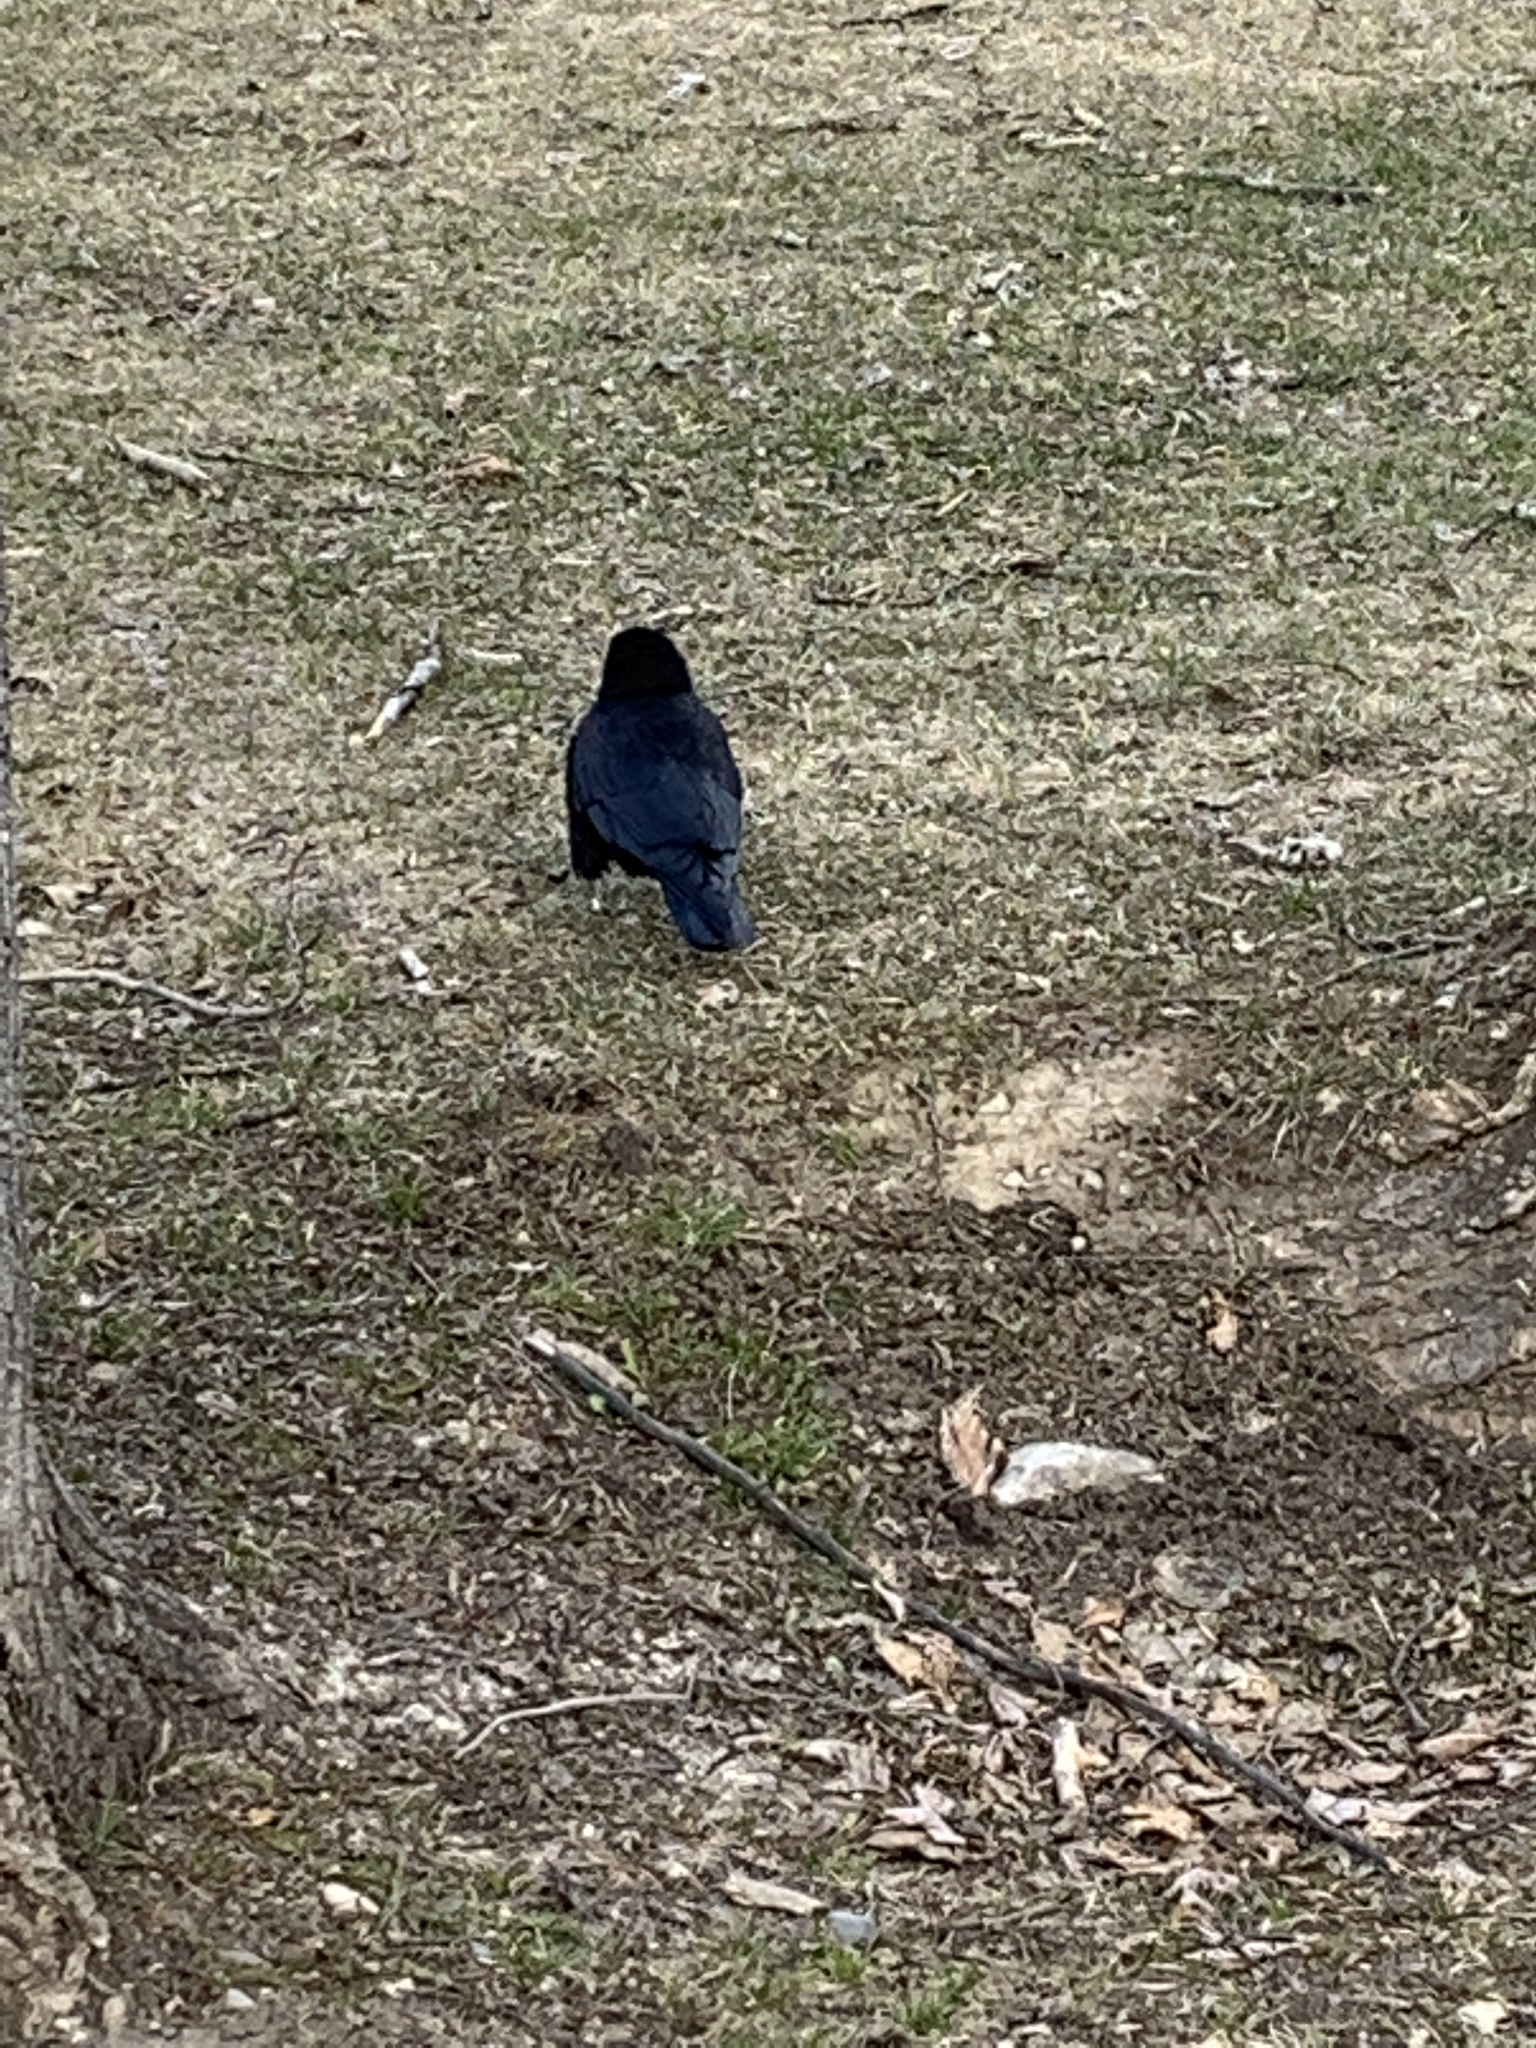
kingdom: Animalia
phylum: Chordata
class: Aves
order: Passeriformes
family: Corvidae
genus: Corvus
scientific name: Corvus brachyrhynchos
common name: American crow
